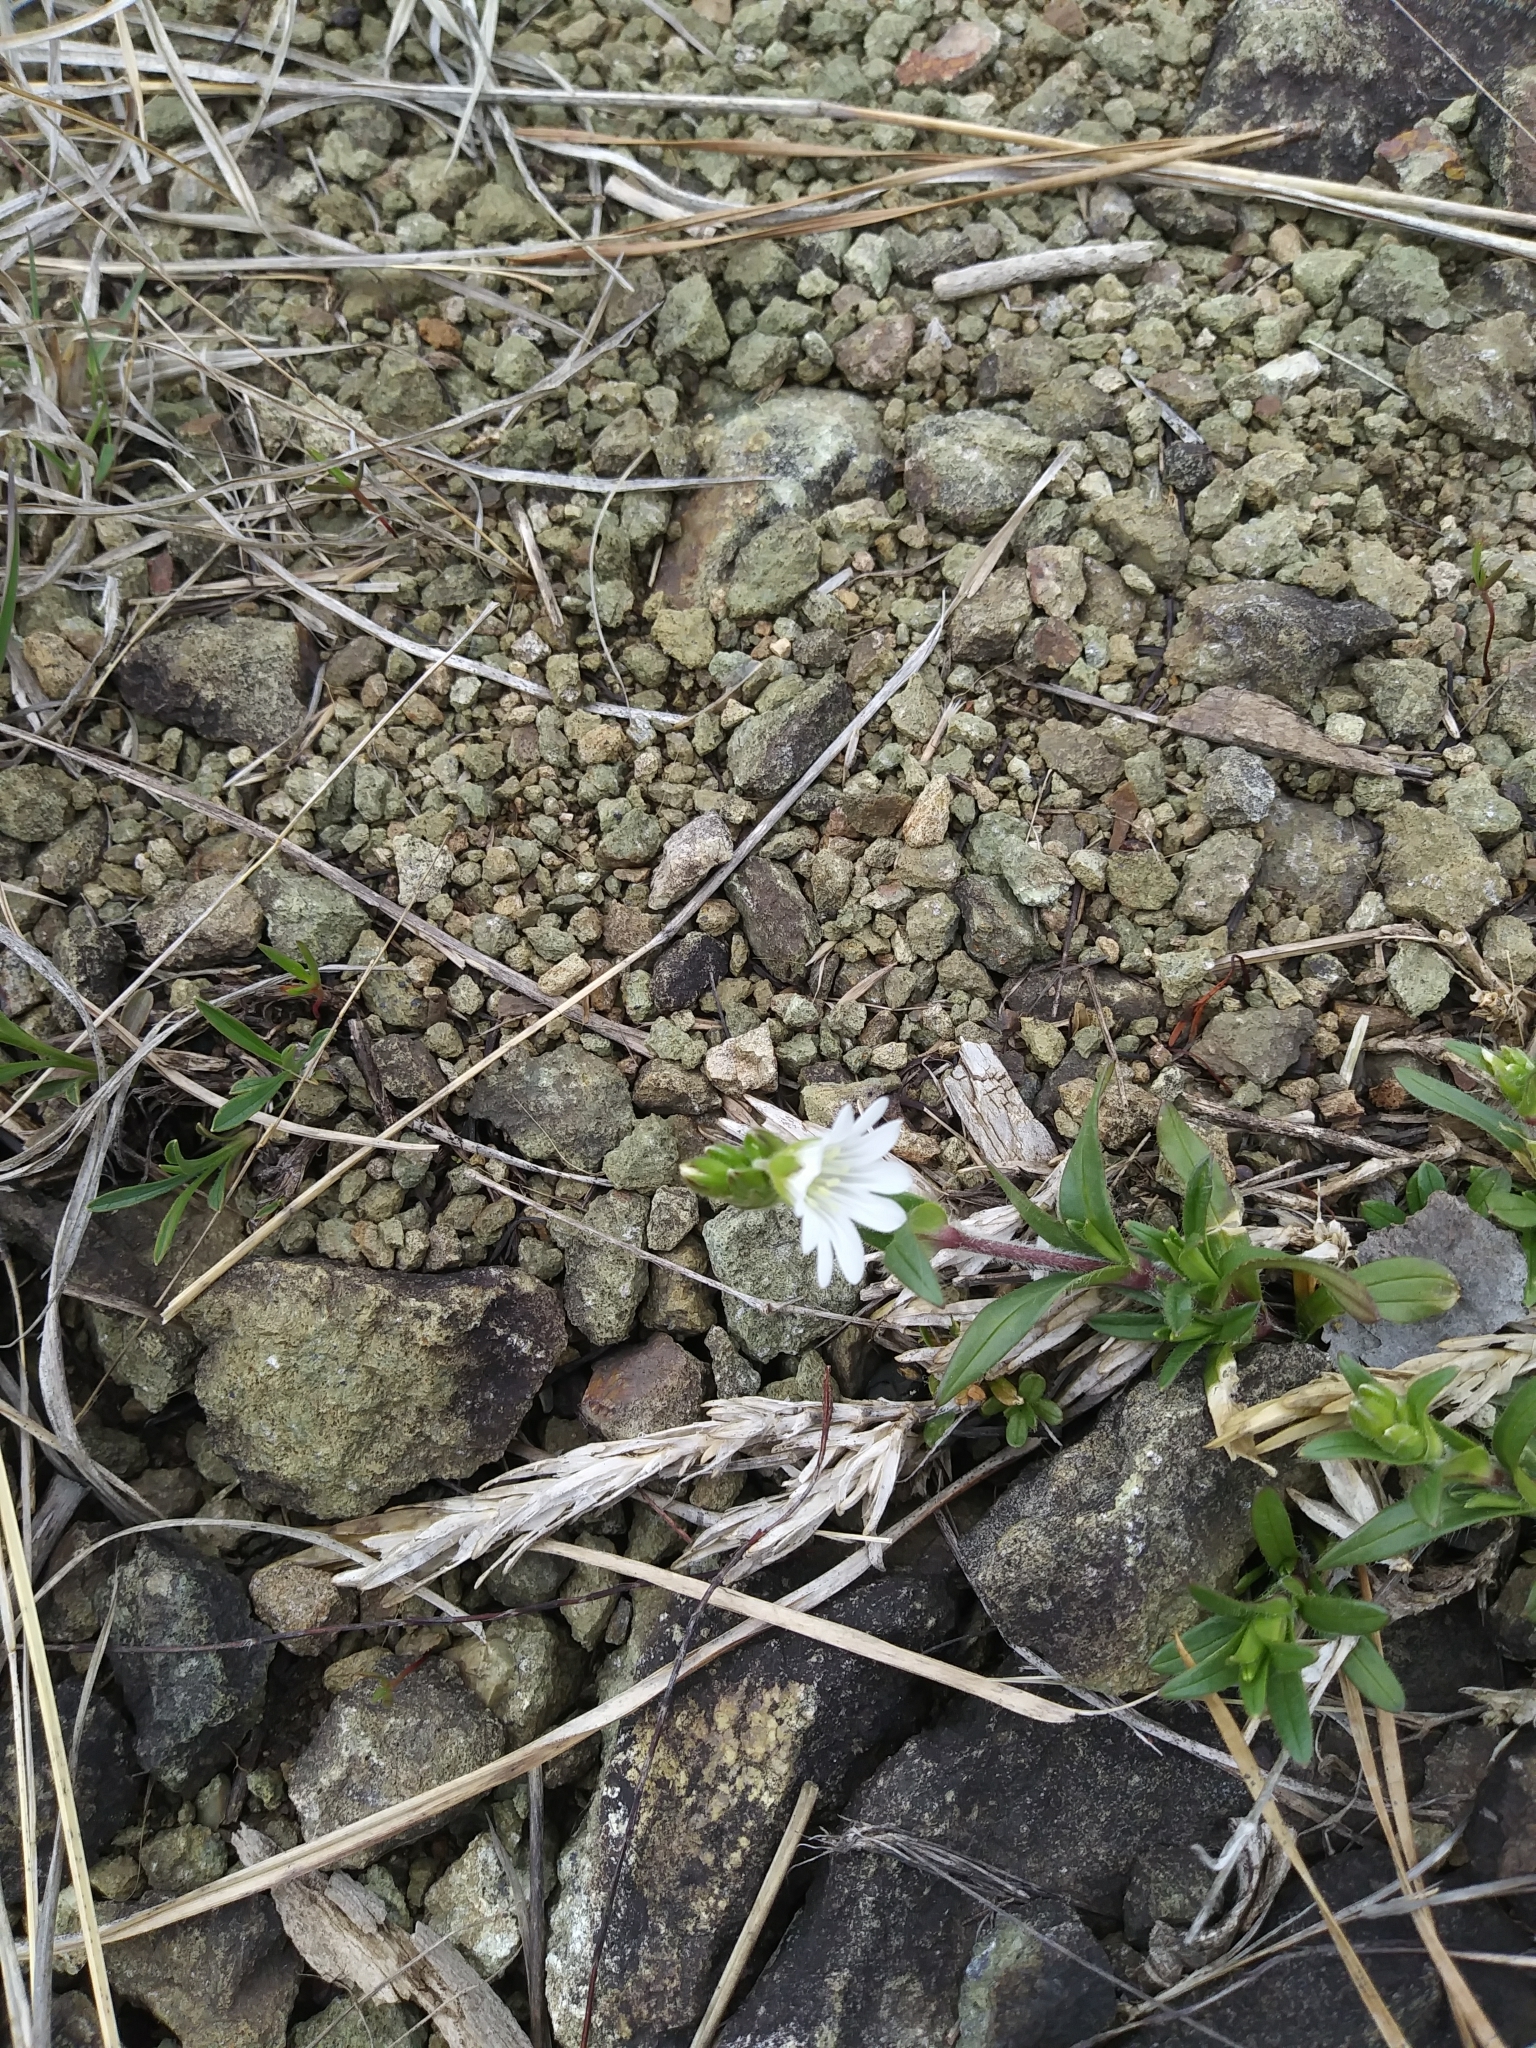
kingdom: Plantae
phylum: Tracheophyta
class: Magnoliopsida
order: Caryophyllales
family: Caryophyllaceae
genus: Cerastium
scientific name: Cerastium velutinum
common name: Barren chickweed
